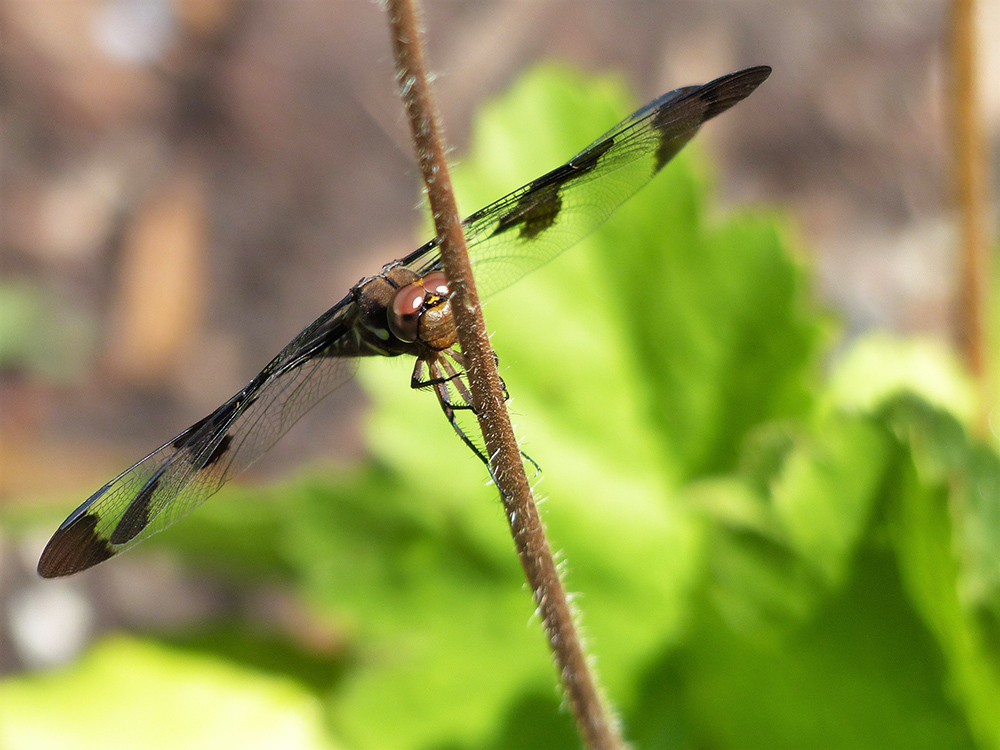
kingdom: Animalia
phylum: Arthropoda
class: Insecta
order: Odonata
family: Libellulidae
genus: Plathemis
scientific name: Plathemis lydia
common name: Common whitetail
